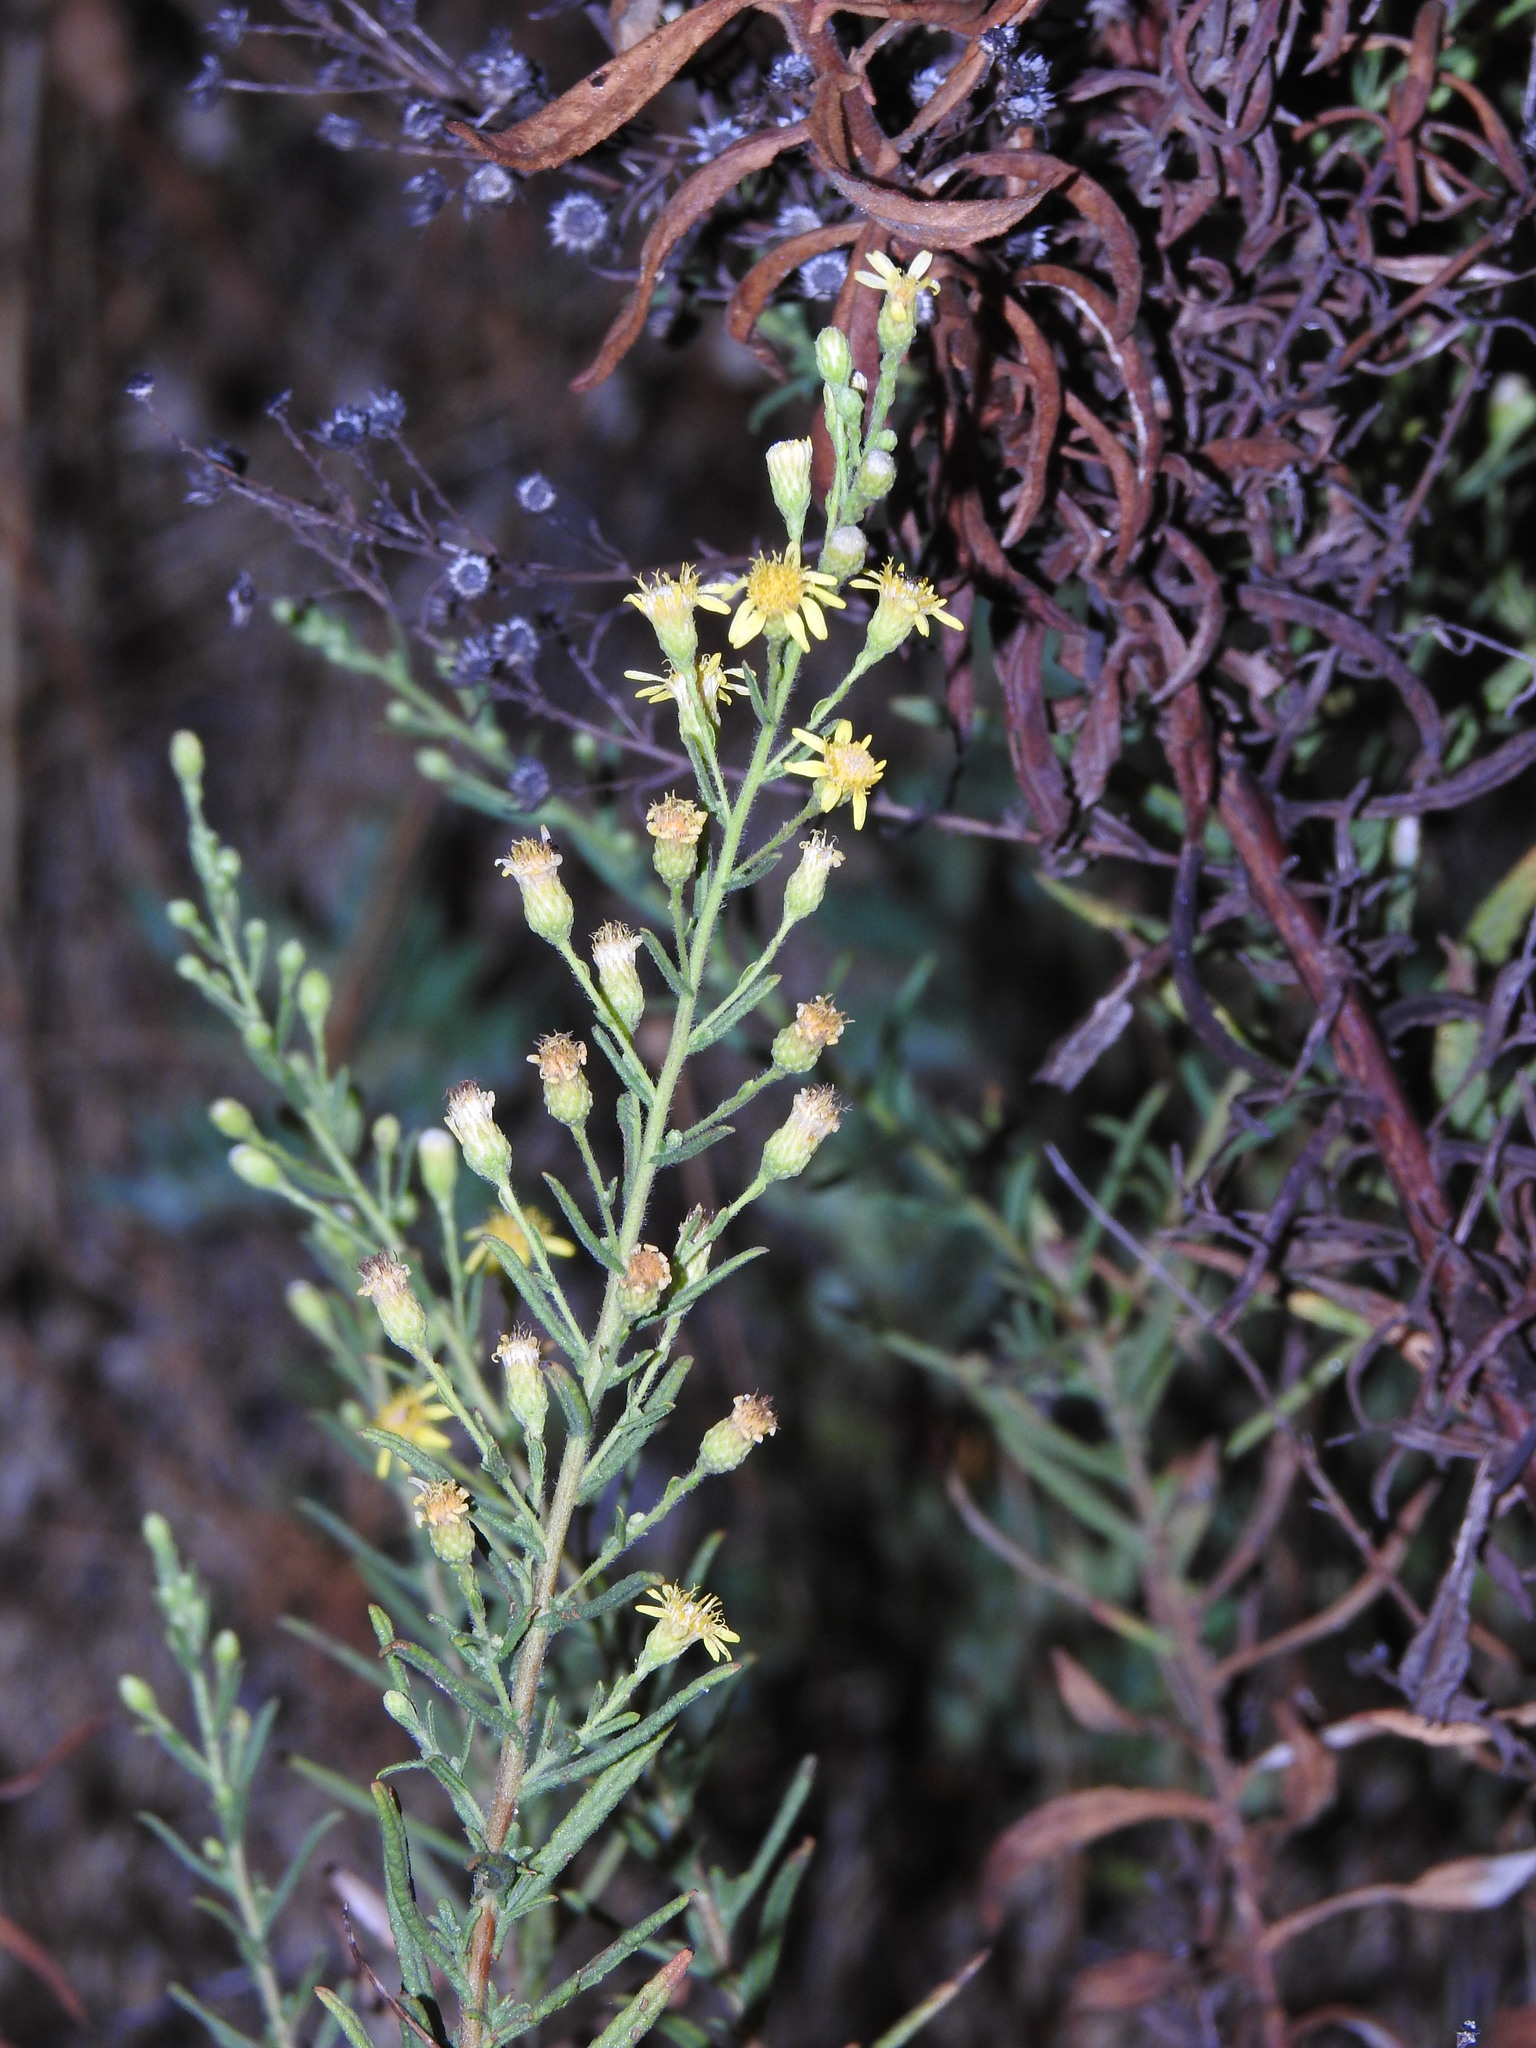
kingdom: Plantae
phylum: Tracheophyta
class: Magnoliopsida
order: Asterales
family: Asteraceae
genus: Dittrichia
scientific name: Dittrichia viscosa
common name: Woody fleabane
